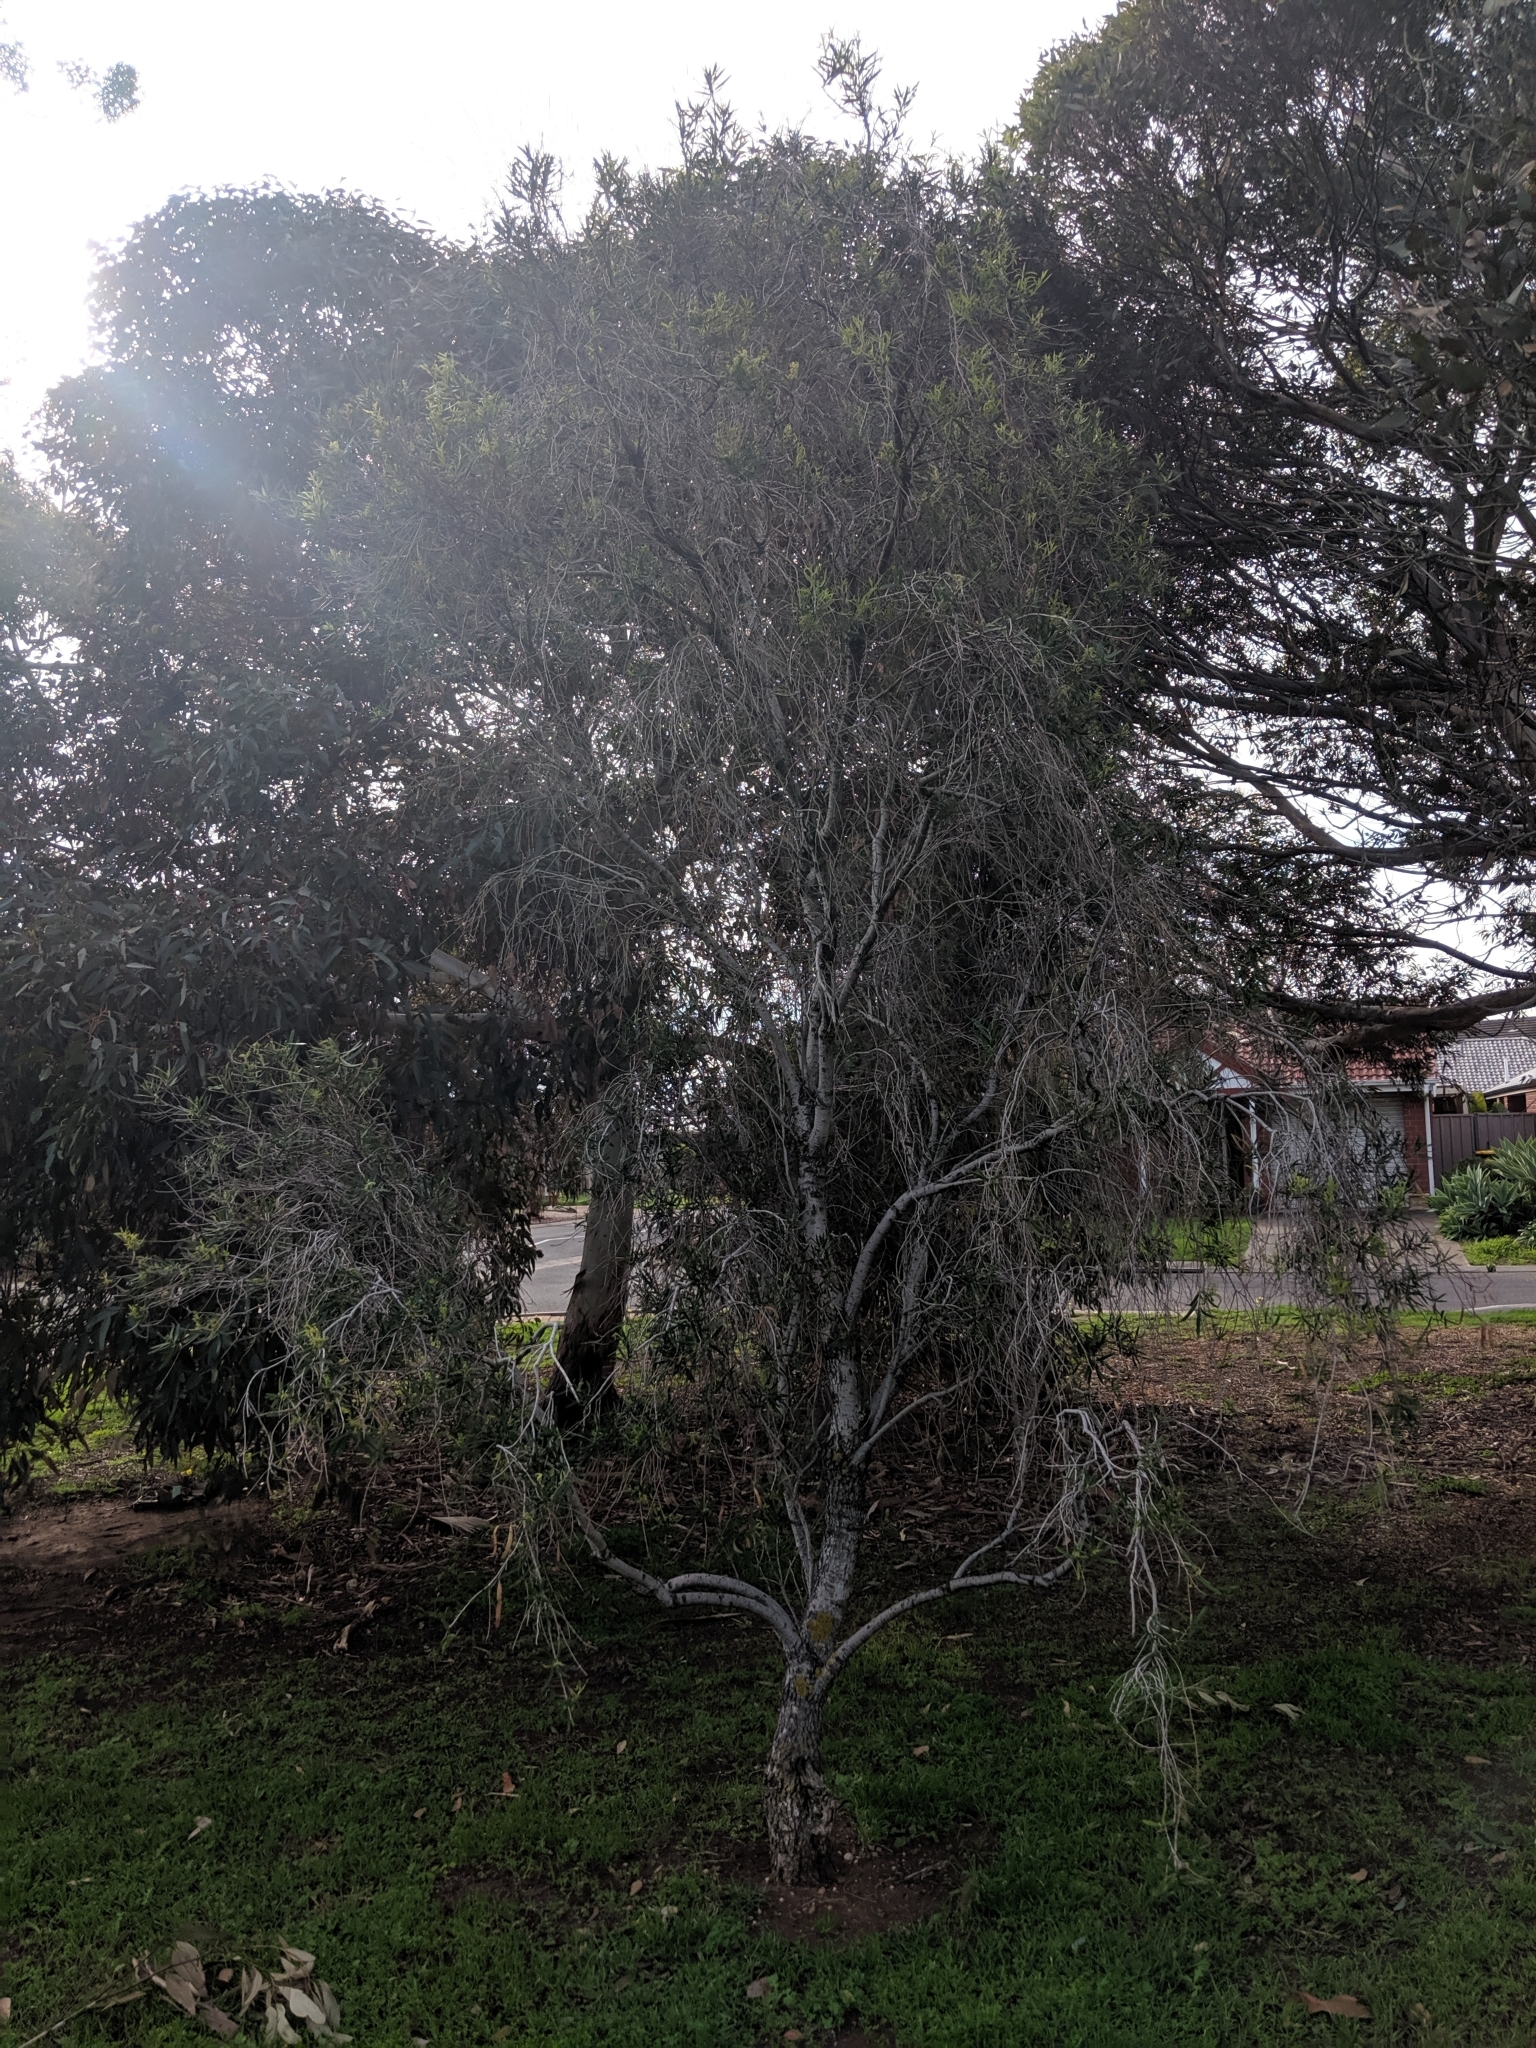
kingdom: Plantae
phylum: Tracheophyta
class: Magnoliopsida
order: Apiales
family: Pittosporaceae
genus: Pittosporum
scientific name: Pittosporum angustifolium
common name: Weeping pittosporum
